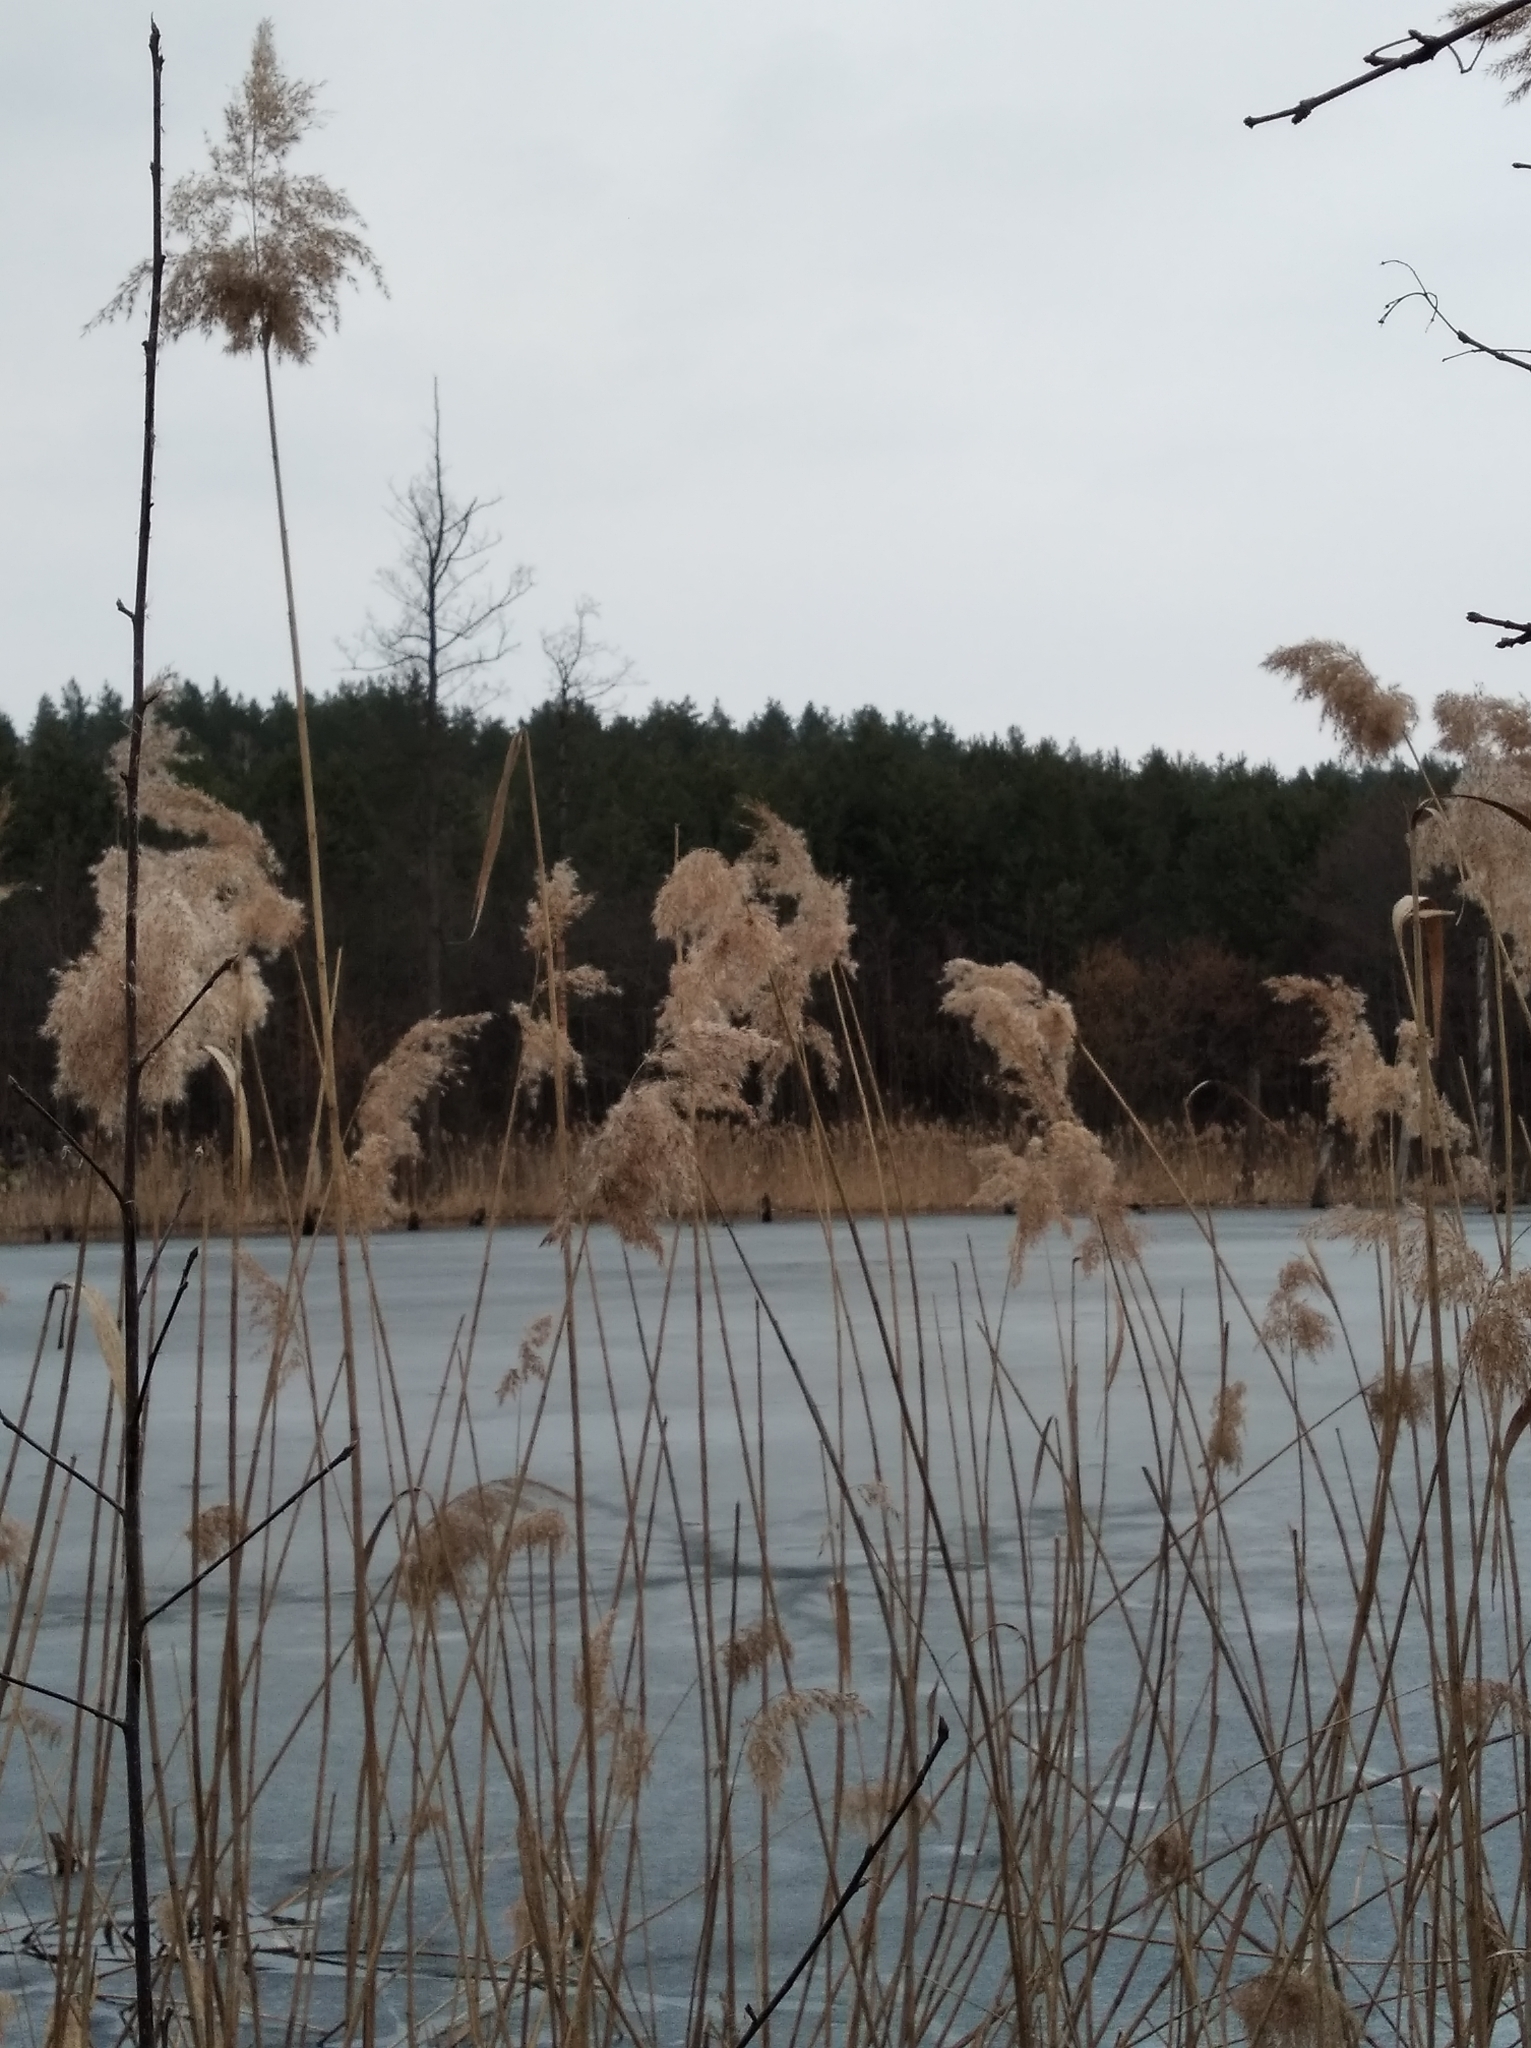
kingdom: Plantae
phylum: Tracheophyta
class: Liliopsida
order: Poales
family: Poaceae
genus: Phragmites
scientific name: Phragmites australis
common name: Common reed
